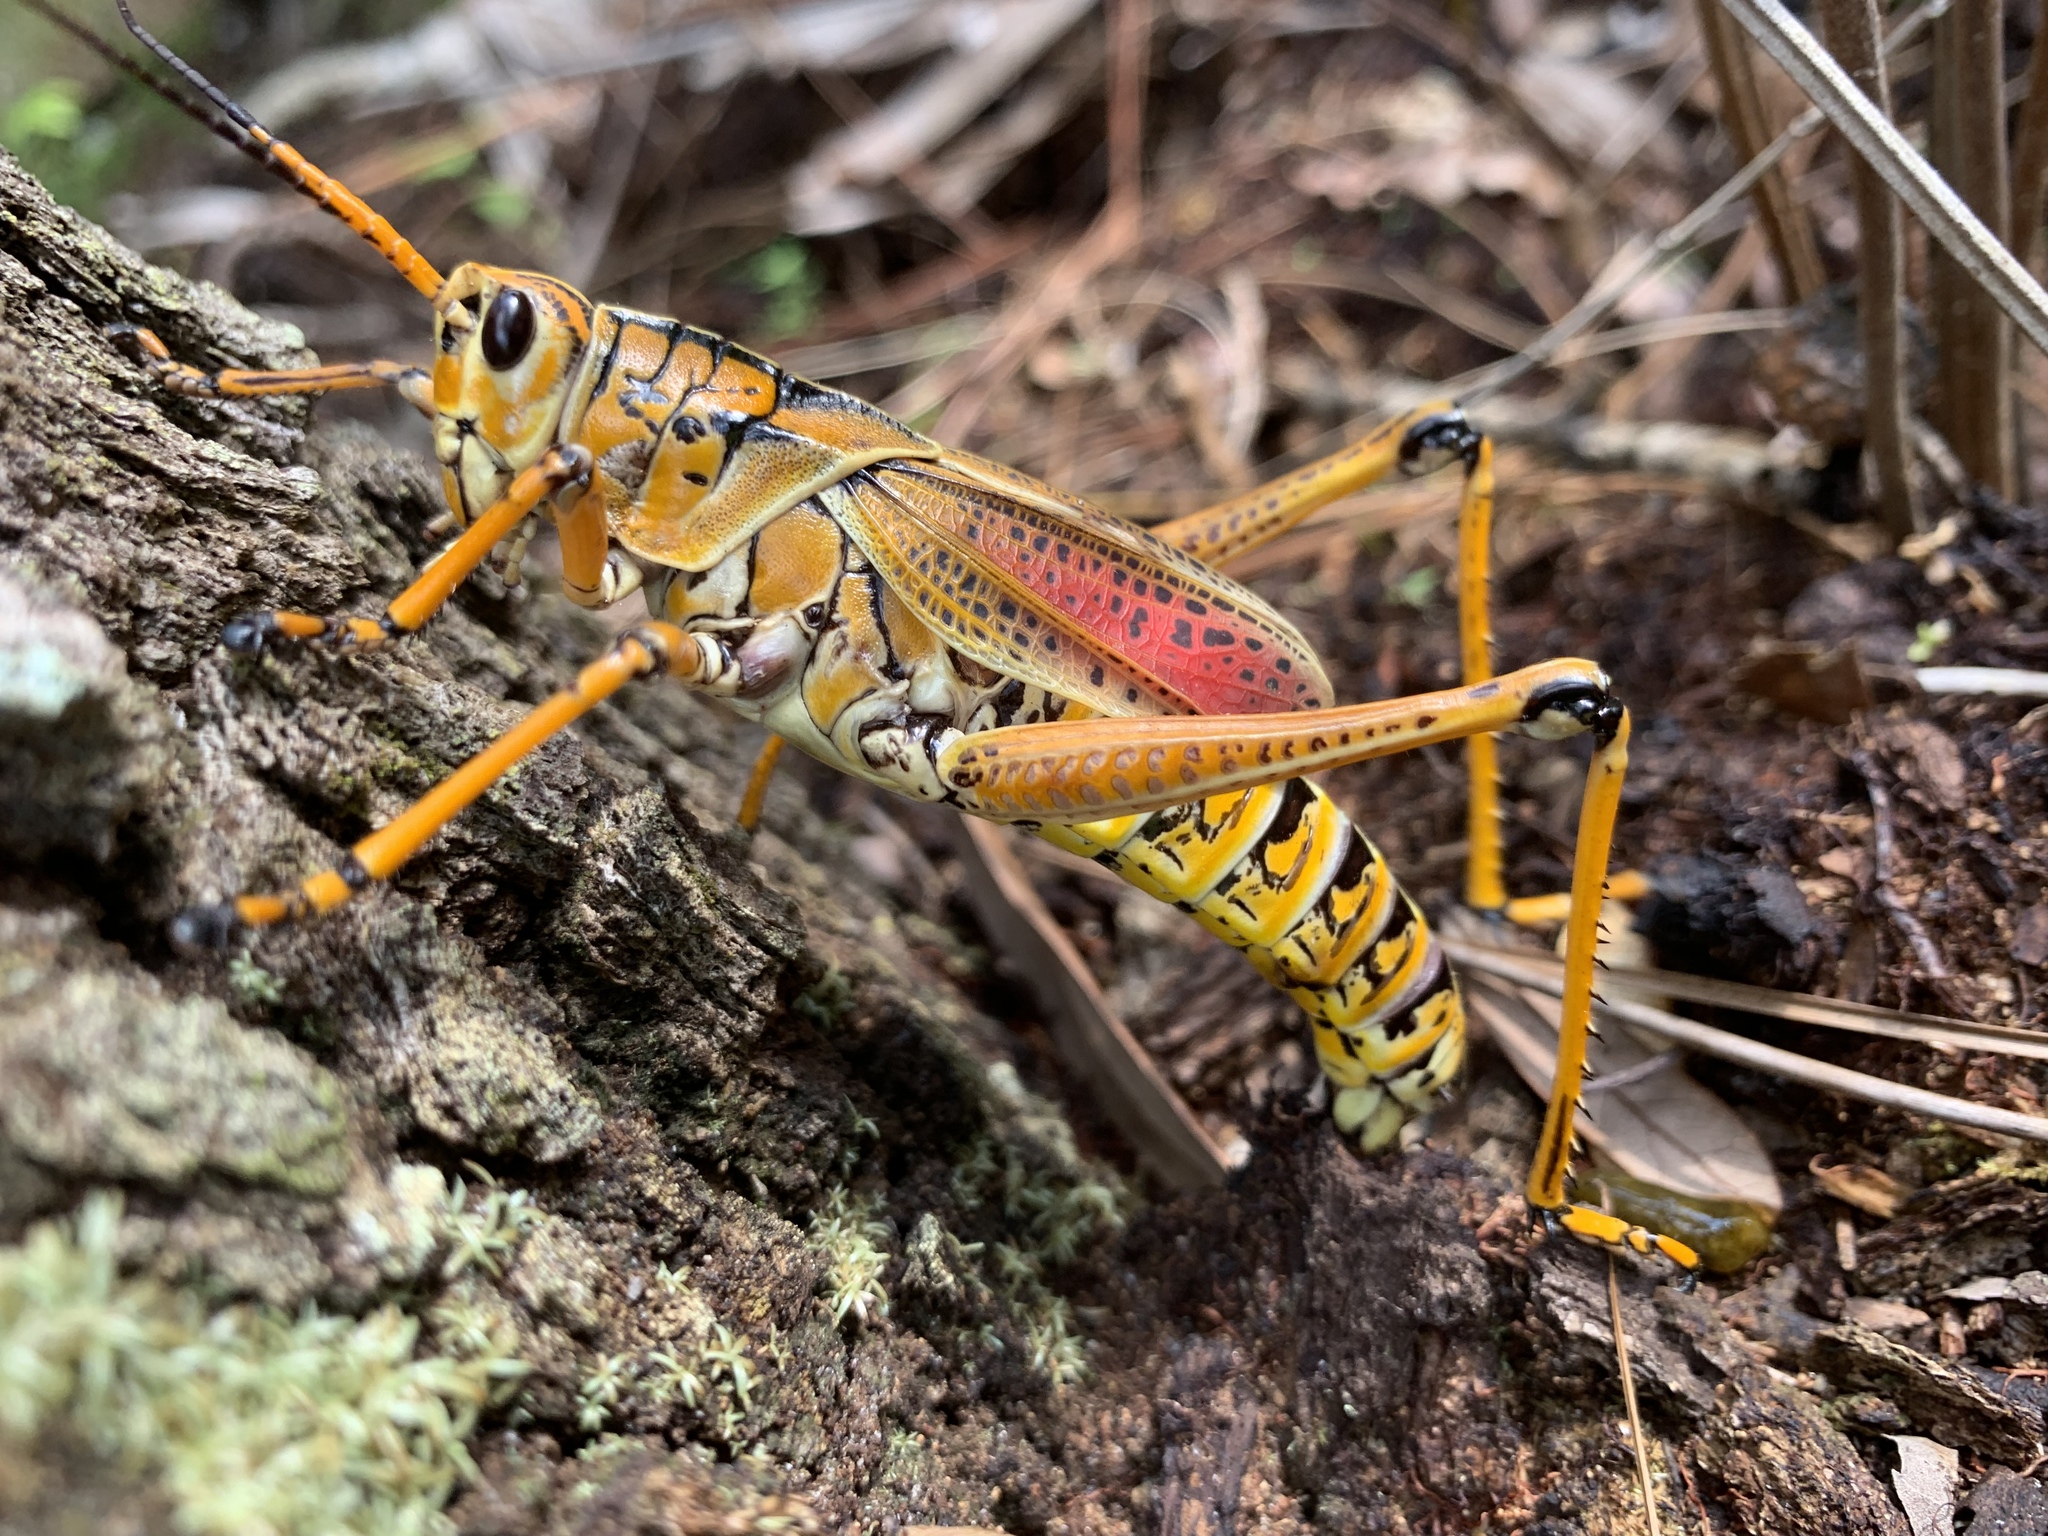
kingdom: Animalia
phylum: Arthropoda
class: Insecta
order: Orthoptera
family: Romaleidae
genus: Romalea
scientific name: Romalea microptera
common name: Eastern lubber grasshopper
